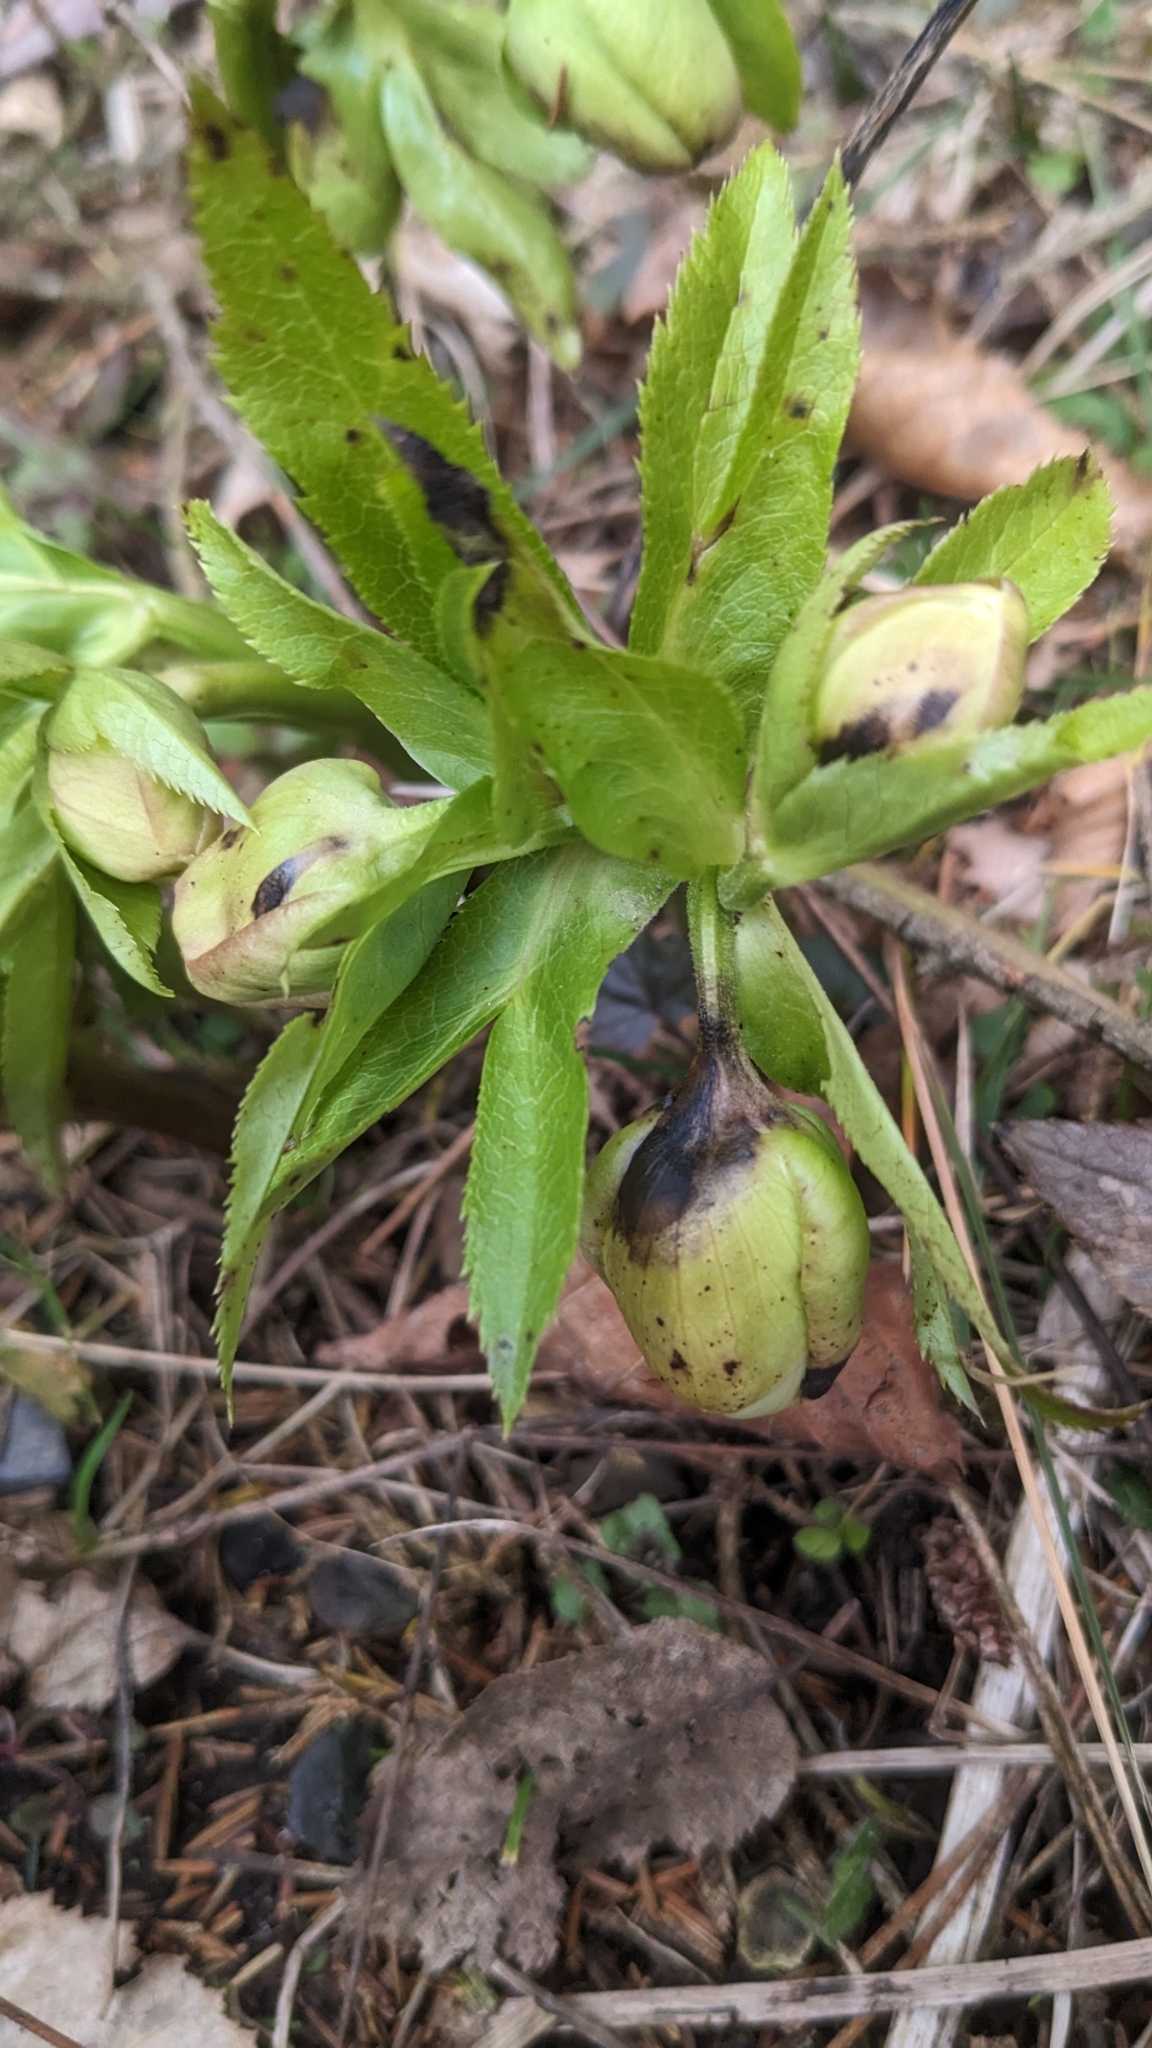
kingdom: Plantae
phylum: Tracheophyta
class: Magnoliopsida
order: Ranunculales
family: Ranunculaceae
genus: Helleborus
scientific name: Helleborus orientalis
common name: Lenten-rose
